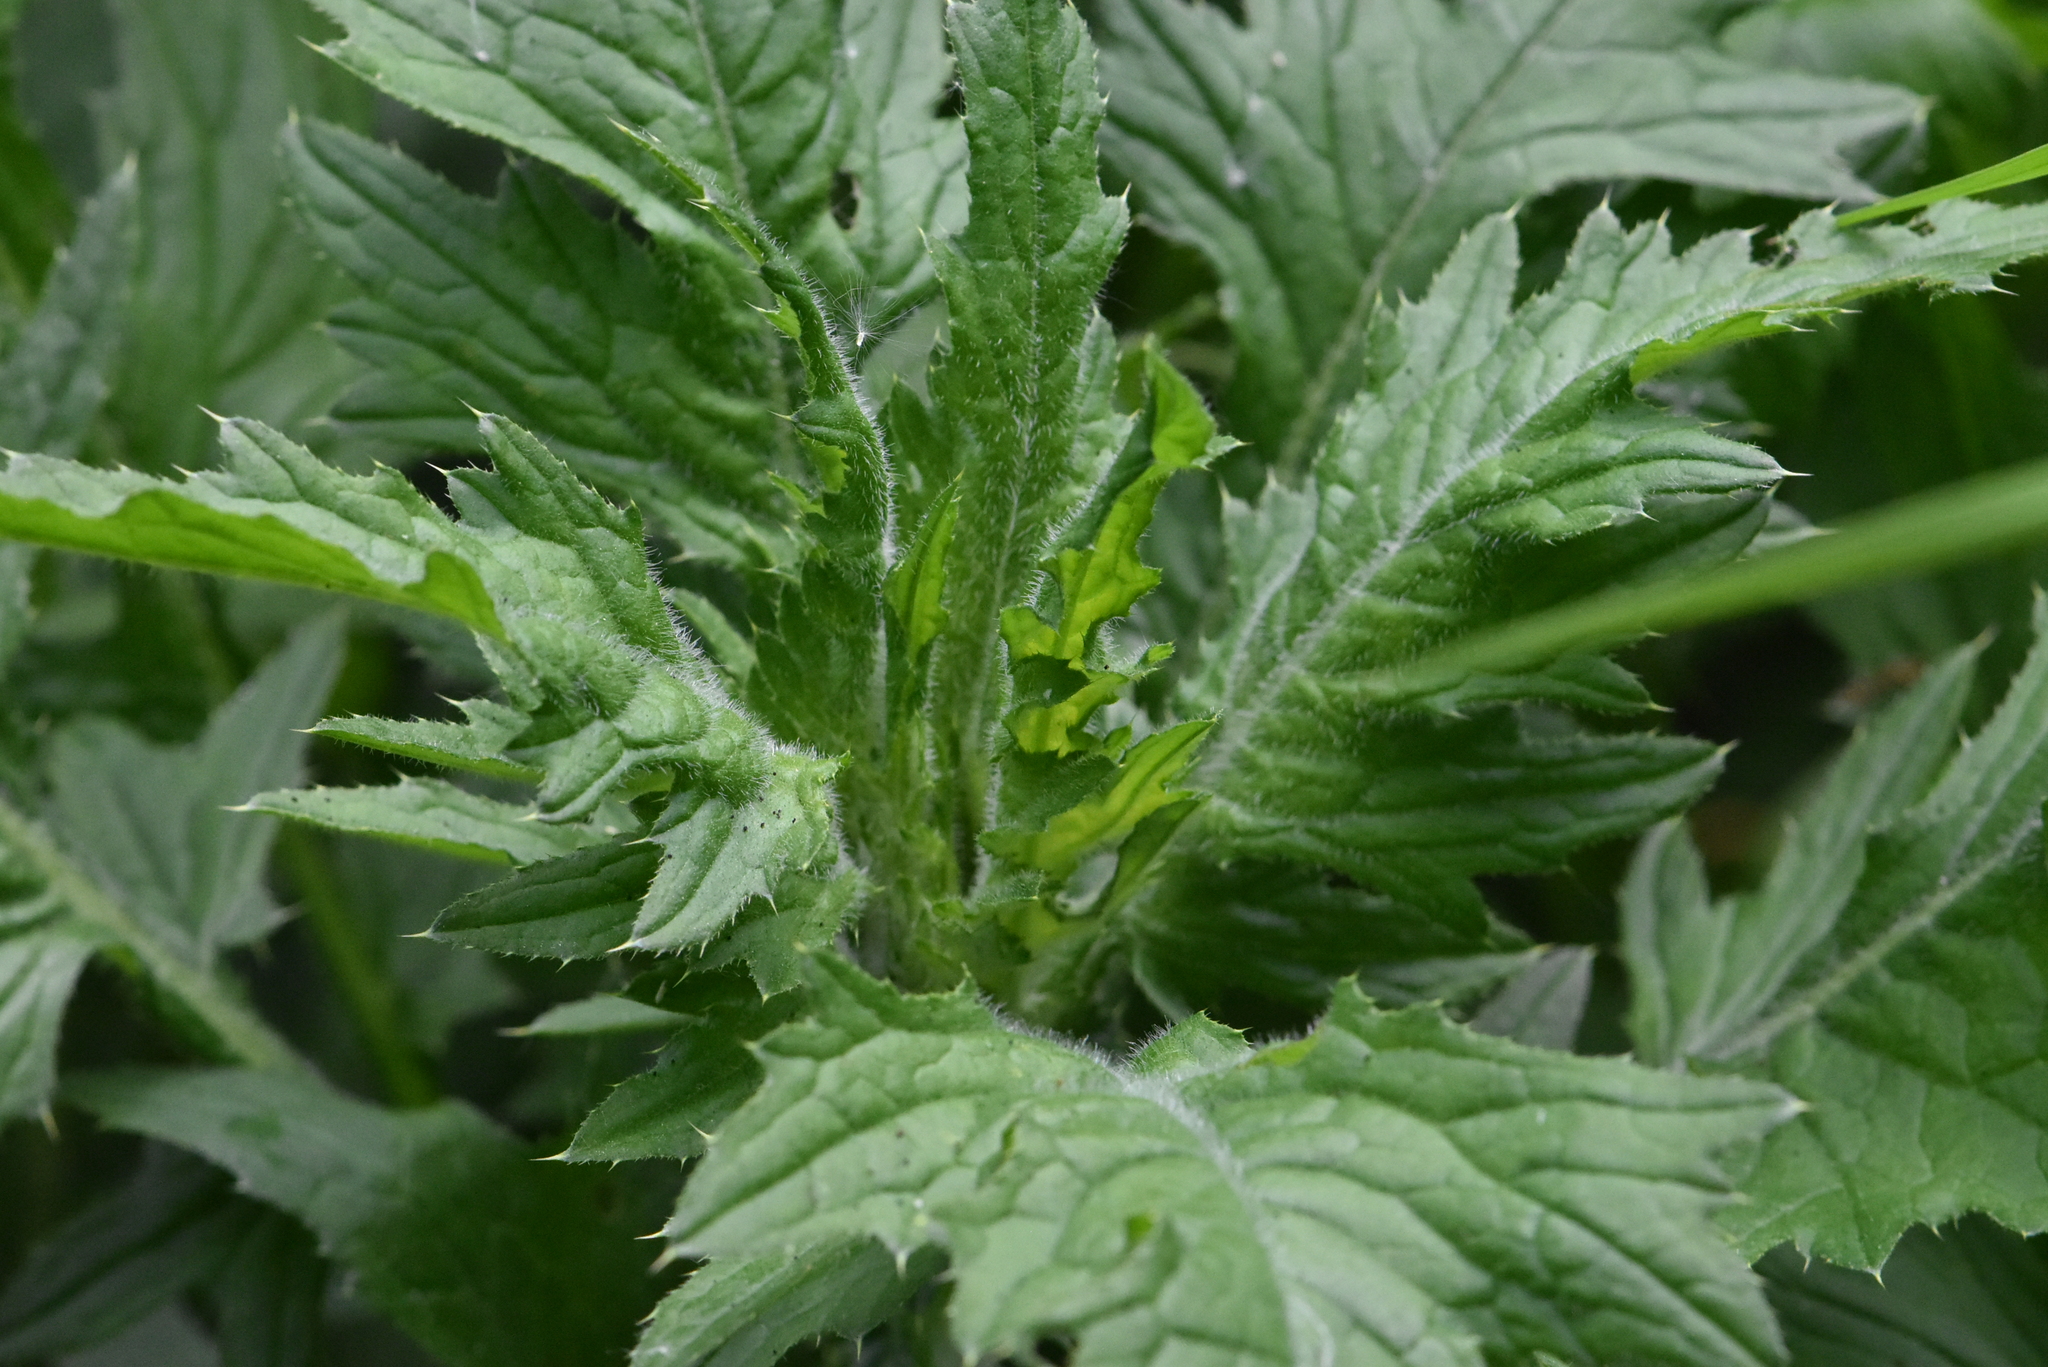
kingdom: Plantae
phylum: Tracheophyta
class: Magnoliopsida
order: Asterales
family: Asteraceae
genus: Carduus
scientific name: Carduus crispus
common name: Welted thistle
